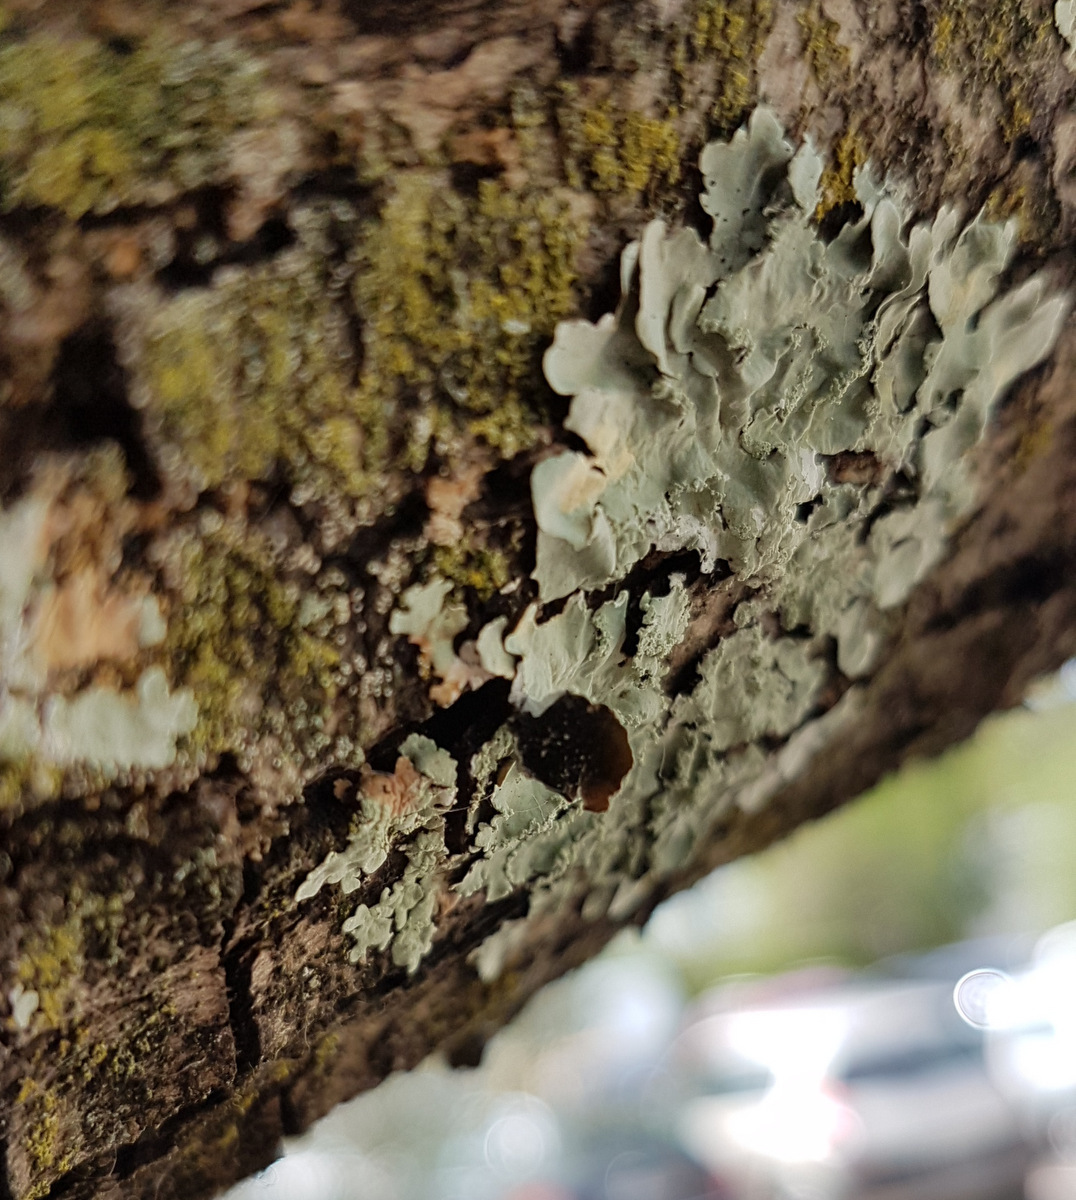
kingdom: Fungi
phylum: Ascomycota
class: Lecanoromycetes
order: Lecanorales
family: Parmeliaceae
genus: Flavoparmelia
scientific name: Flavoparmelia
